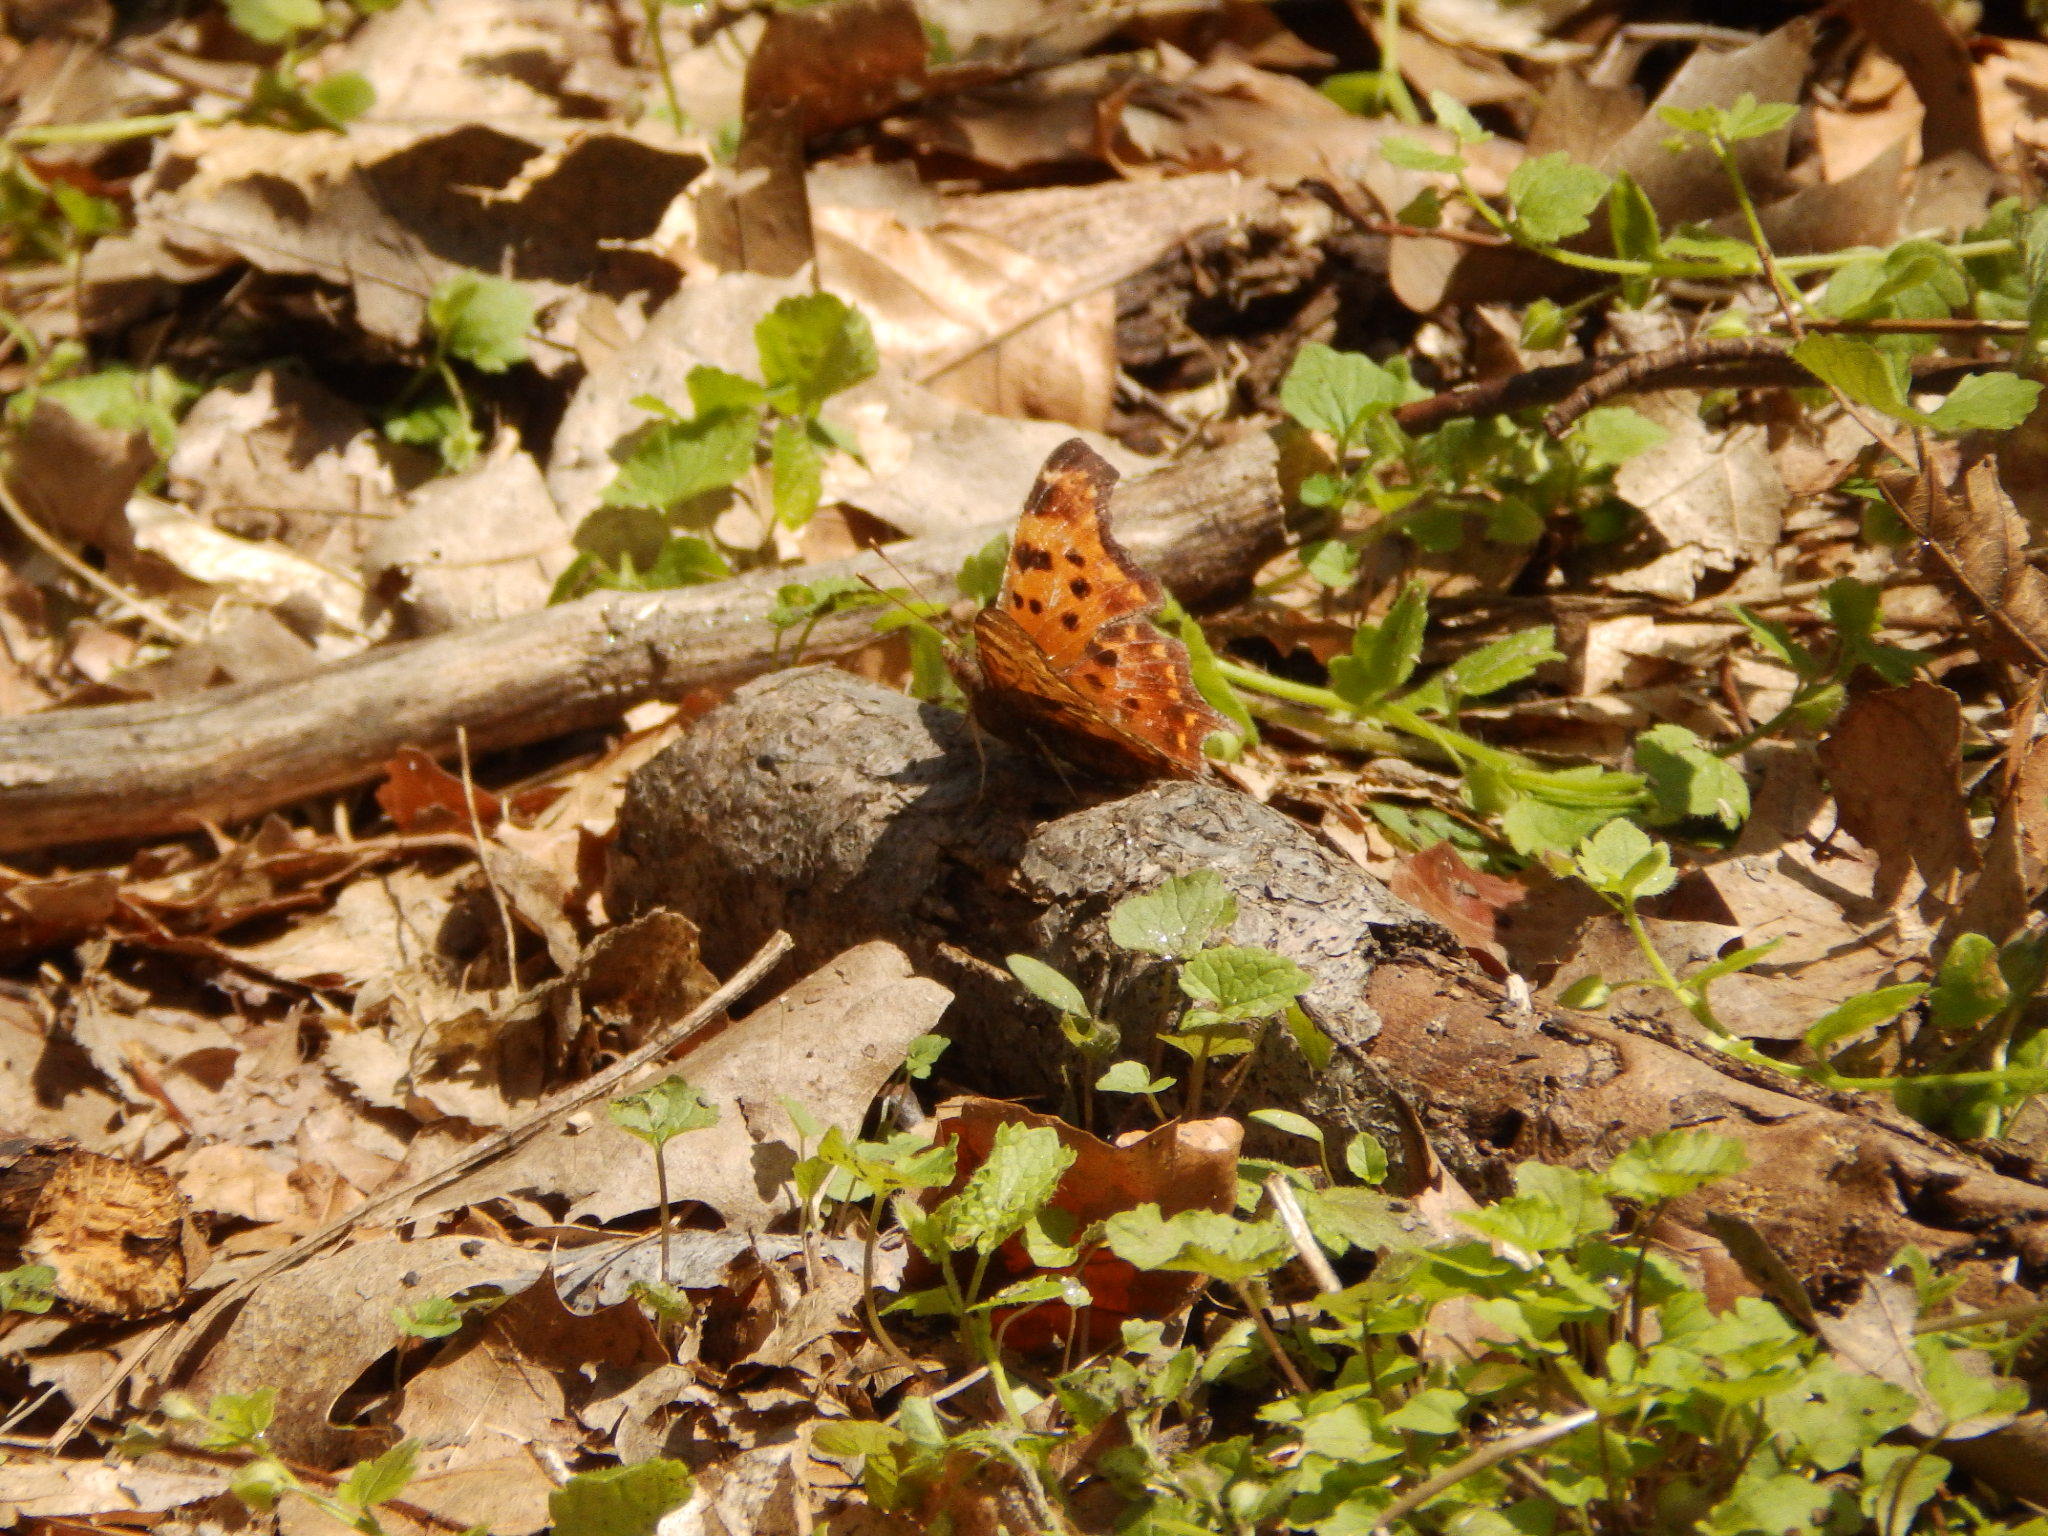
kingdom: Animalia
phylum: Arthropoda
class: Insecta
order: Lepidoptera
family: Nymphalidae
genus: Polygonia
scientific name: Polygonia comma
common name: Eastern comma
